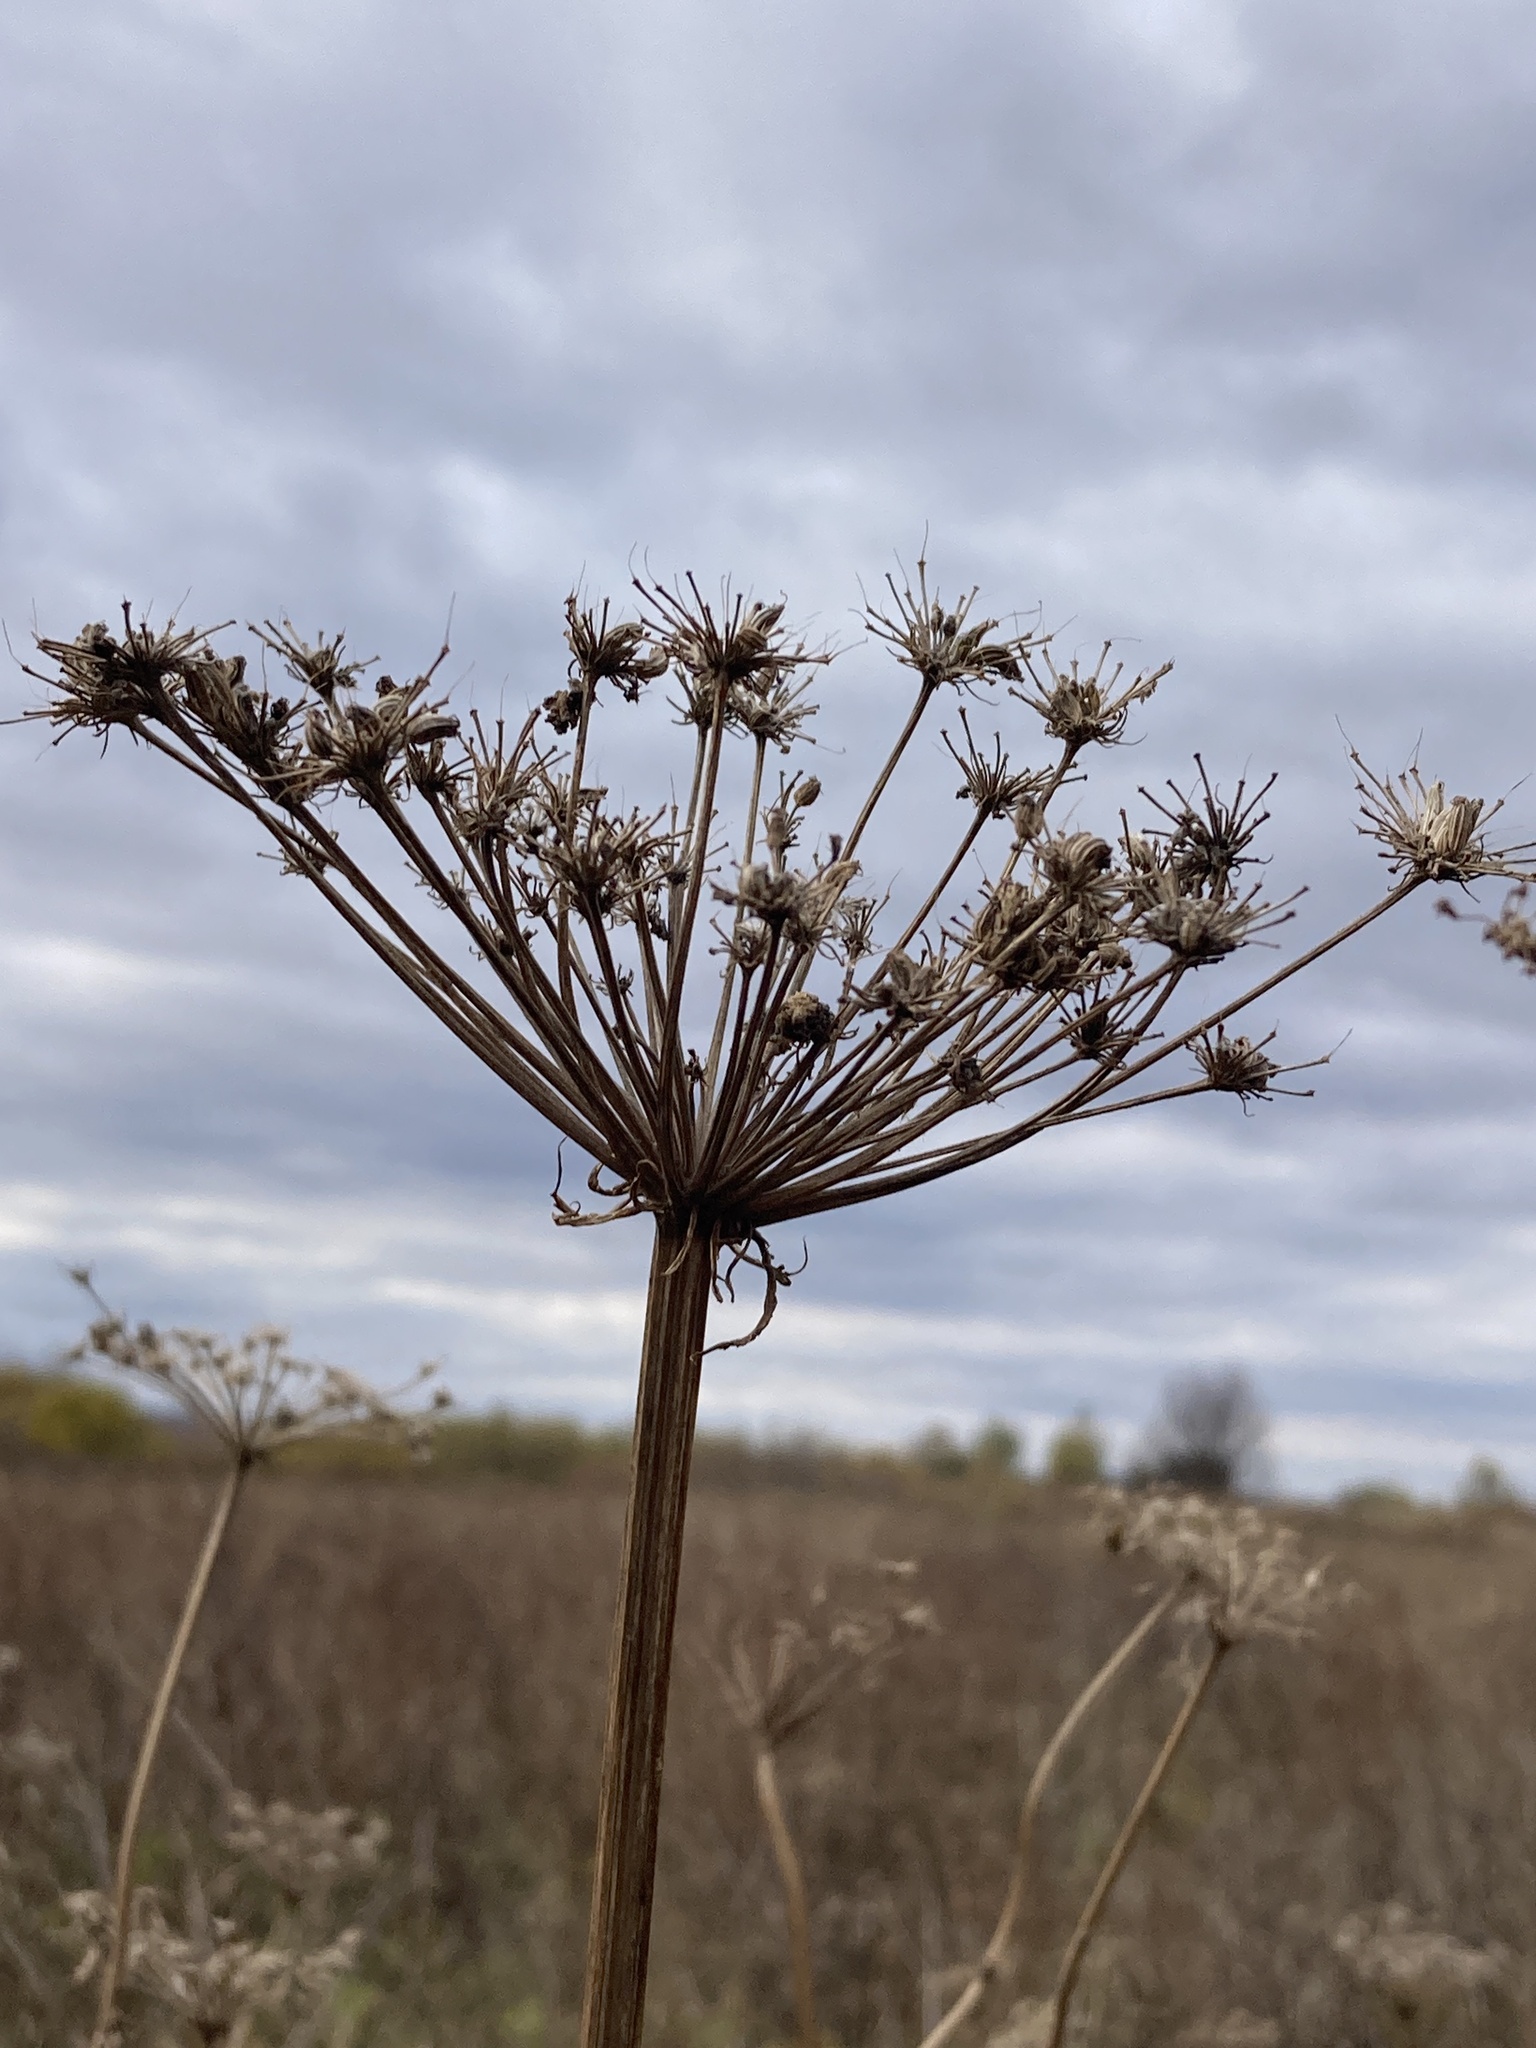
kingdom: Plantae
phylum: Tracheophyta
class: Magnoliopsida
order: Apiales
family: Apiaceae
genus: Seseli
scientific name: Seseli libanotis
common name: Mooncarrot
